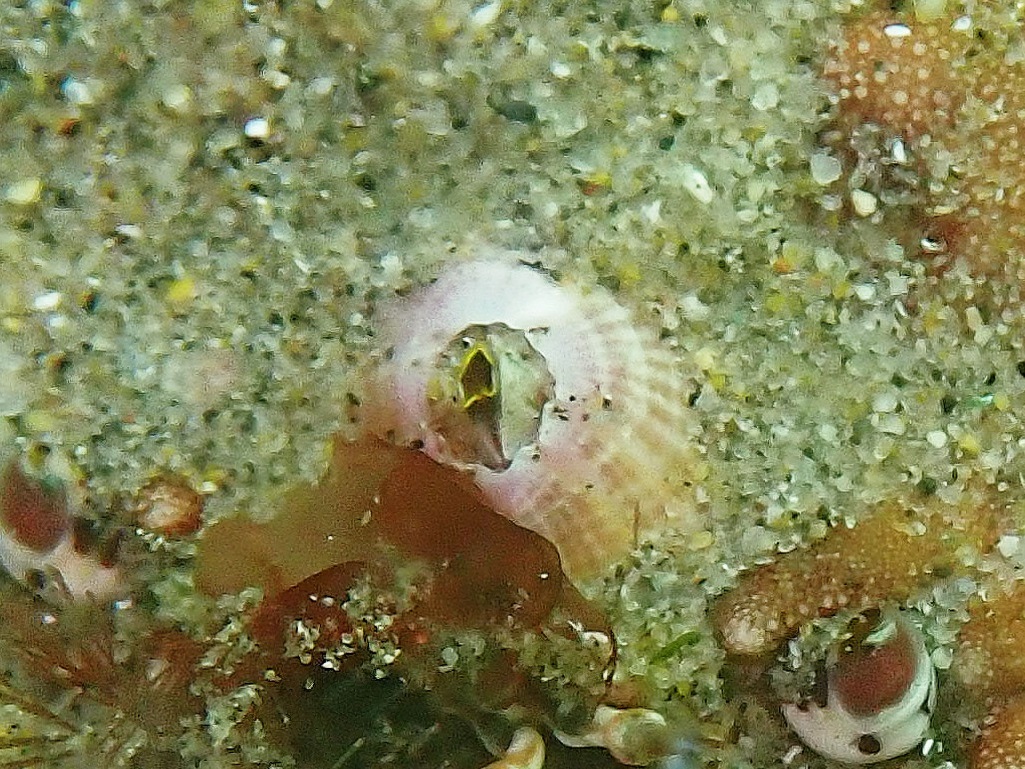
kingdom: Animalia
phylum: Arthropoda
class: Maxillopoda
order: Sessilia
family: Balanidae
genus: Paraconcavus
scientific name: Paraconcavus pacificus
